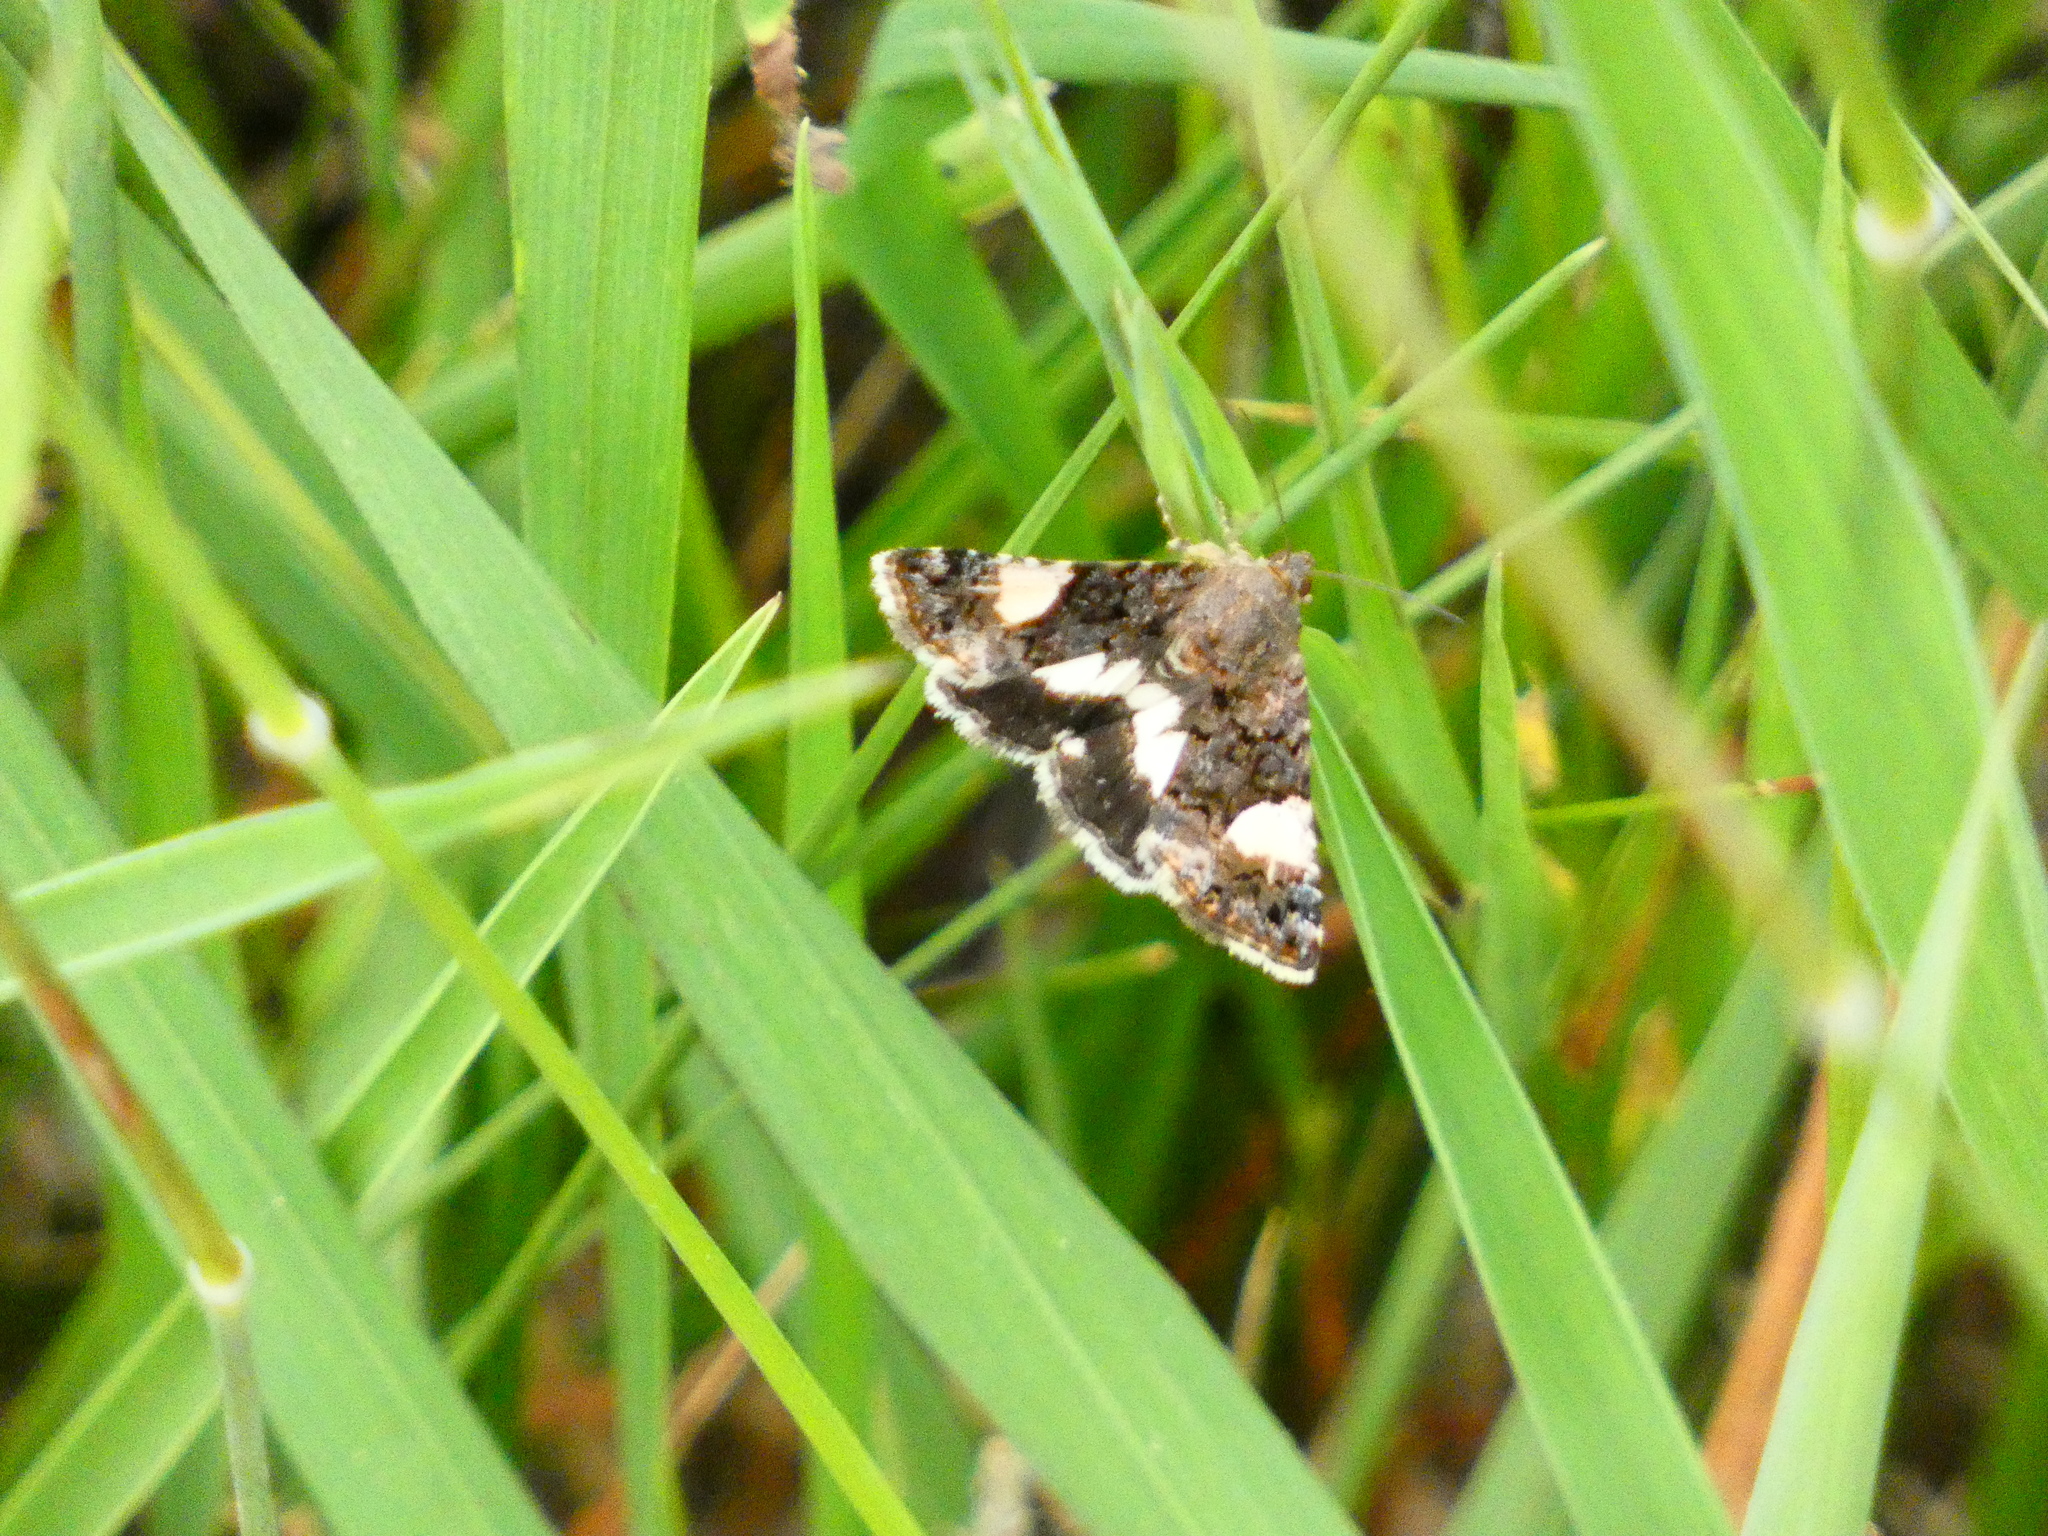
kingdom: Animalia
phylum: Arthropoda
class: Insecta
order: Lepidoptera
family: Erebidae
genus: Tyta
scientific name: Tyta luctuosa
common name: Four-spotted
